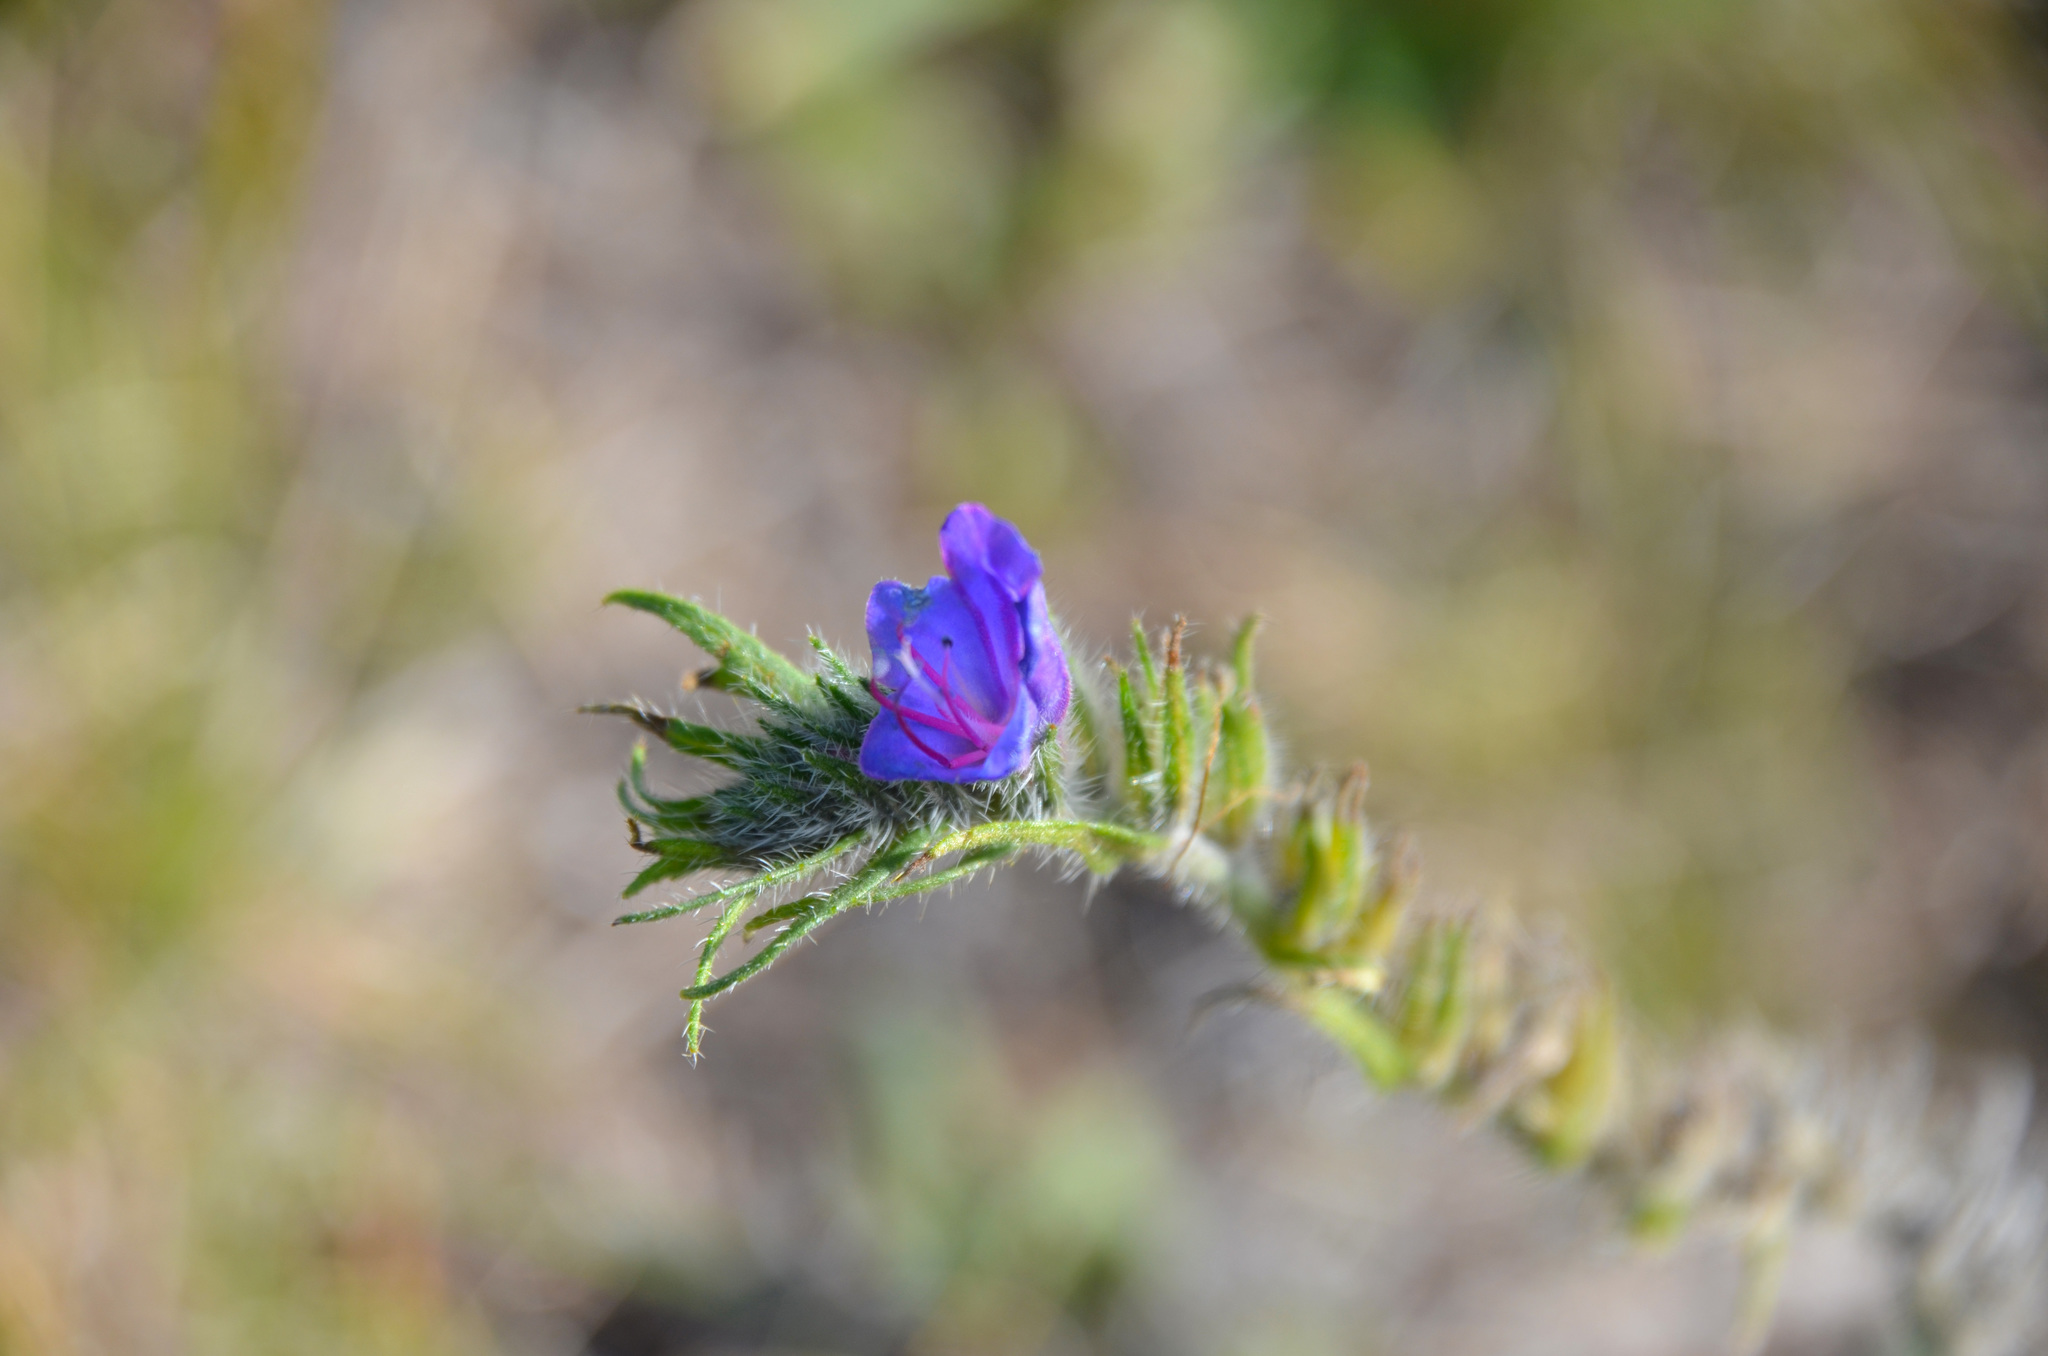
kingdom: Plantae
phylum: Tracheophyta
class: Magnoliopsida
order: Boraginales
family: Boraginaceae
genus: Echium
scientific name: Echium vulgare
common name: Common viper's bugloss
